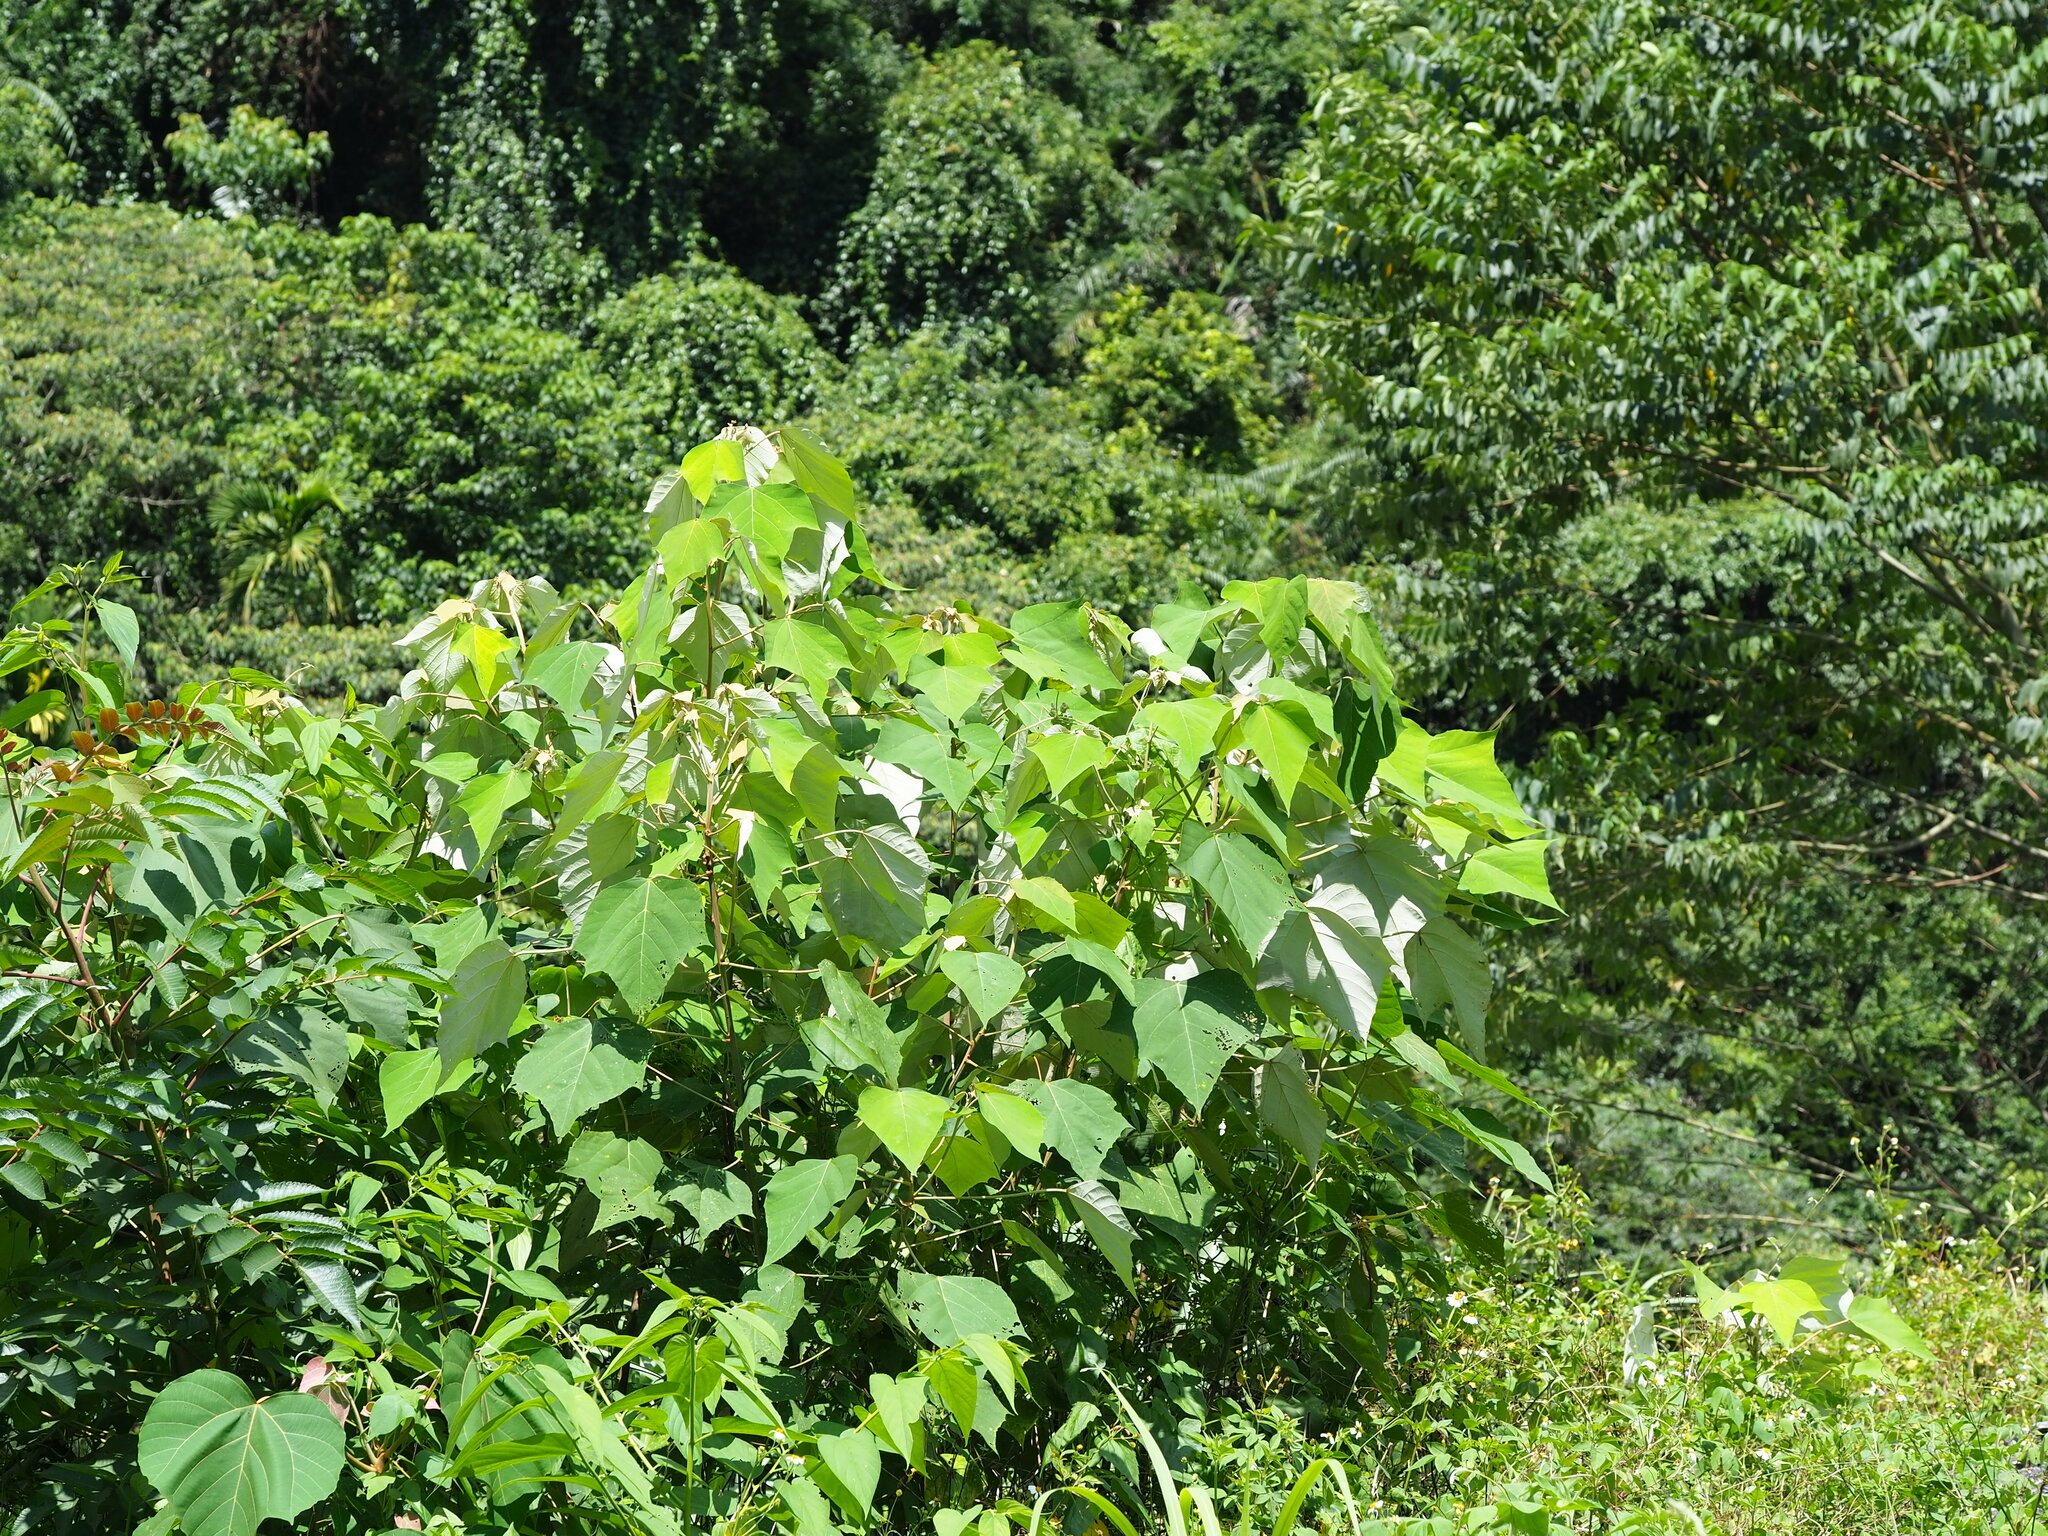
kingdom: Plantae
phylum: Tracheophyta
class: Magnoliopsida
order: Malpighiales
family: Euphorbiaceae
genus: Mallotus
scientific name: Mallotus paniculatus
